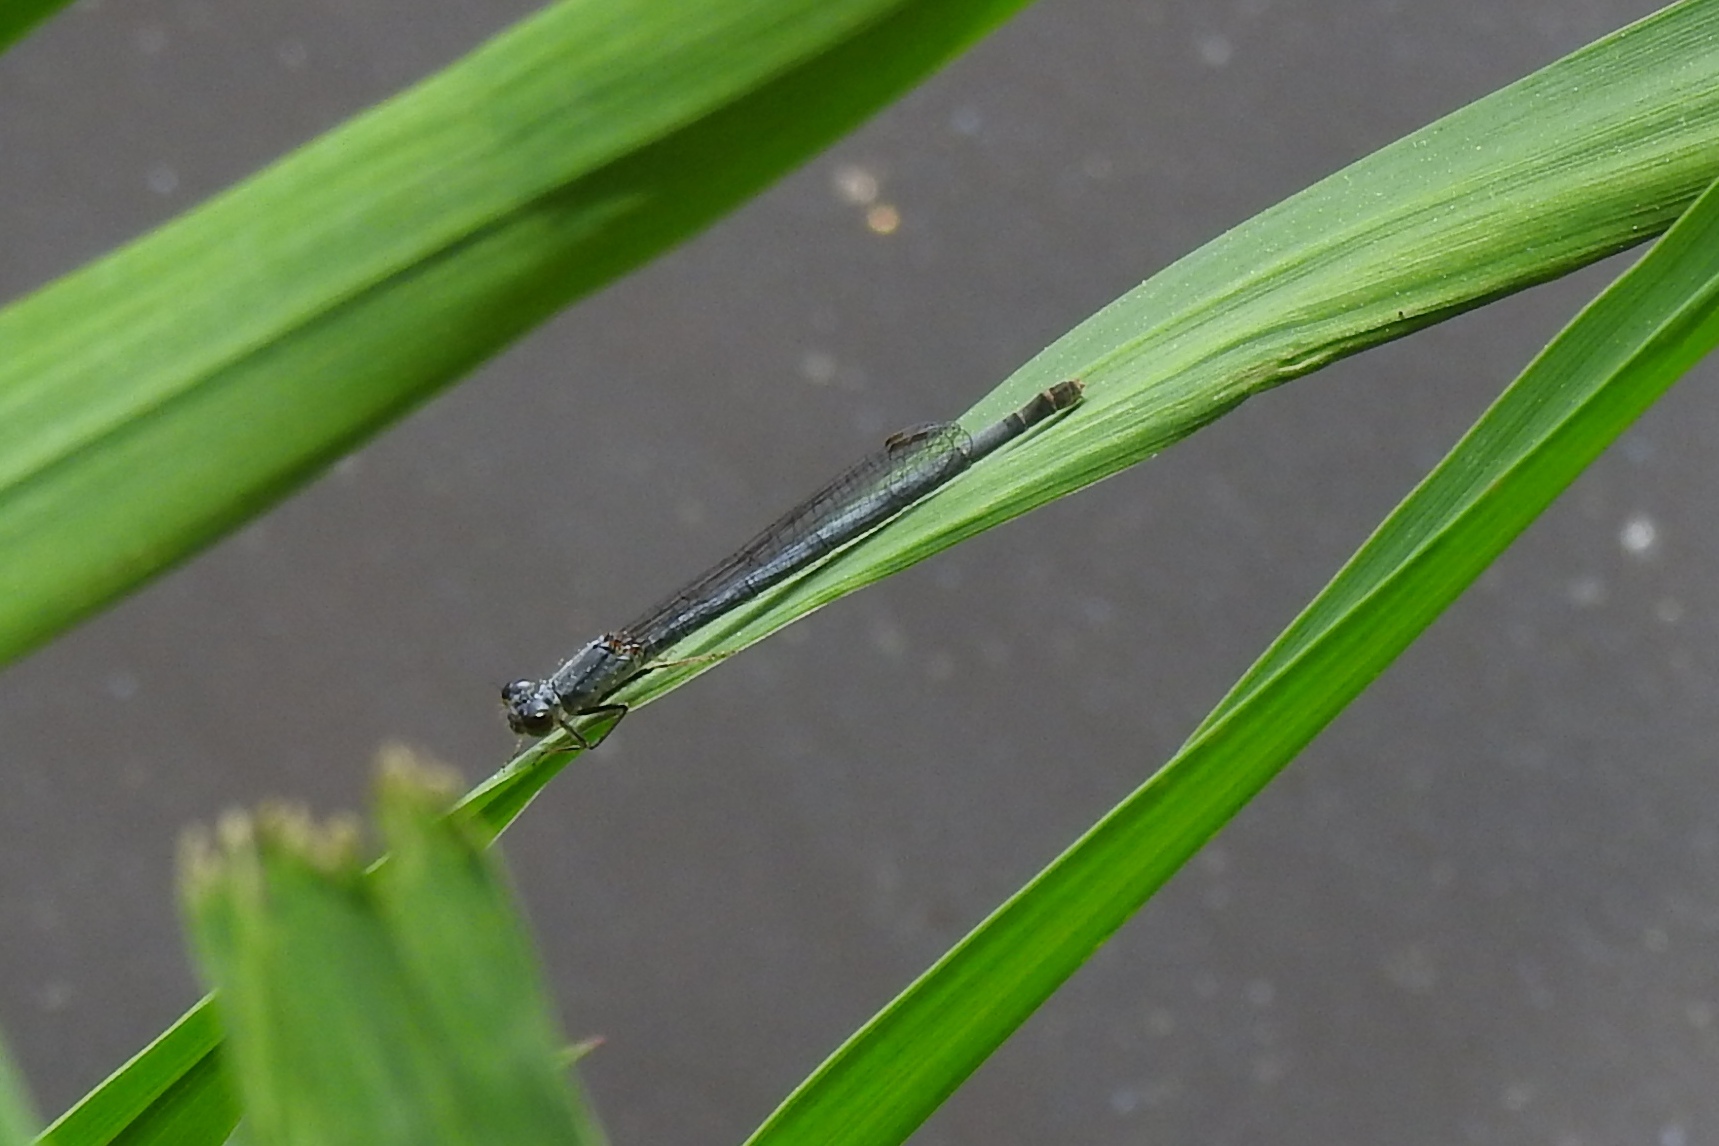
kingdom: Animalia
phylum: Arthropoda
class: Insecta
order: Odonata
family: Coenagrionidae
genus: Ischnura
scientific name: Ischnura posita
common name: Fragile forktail
